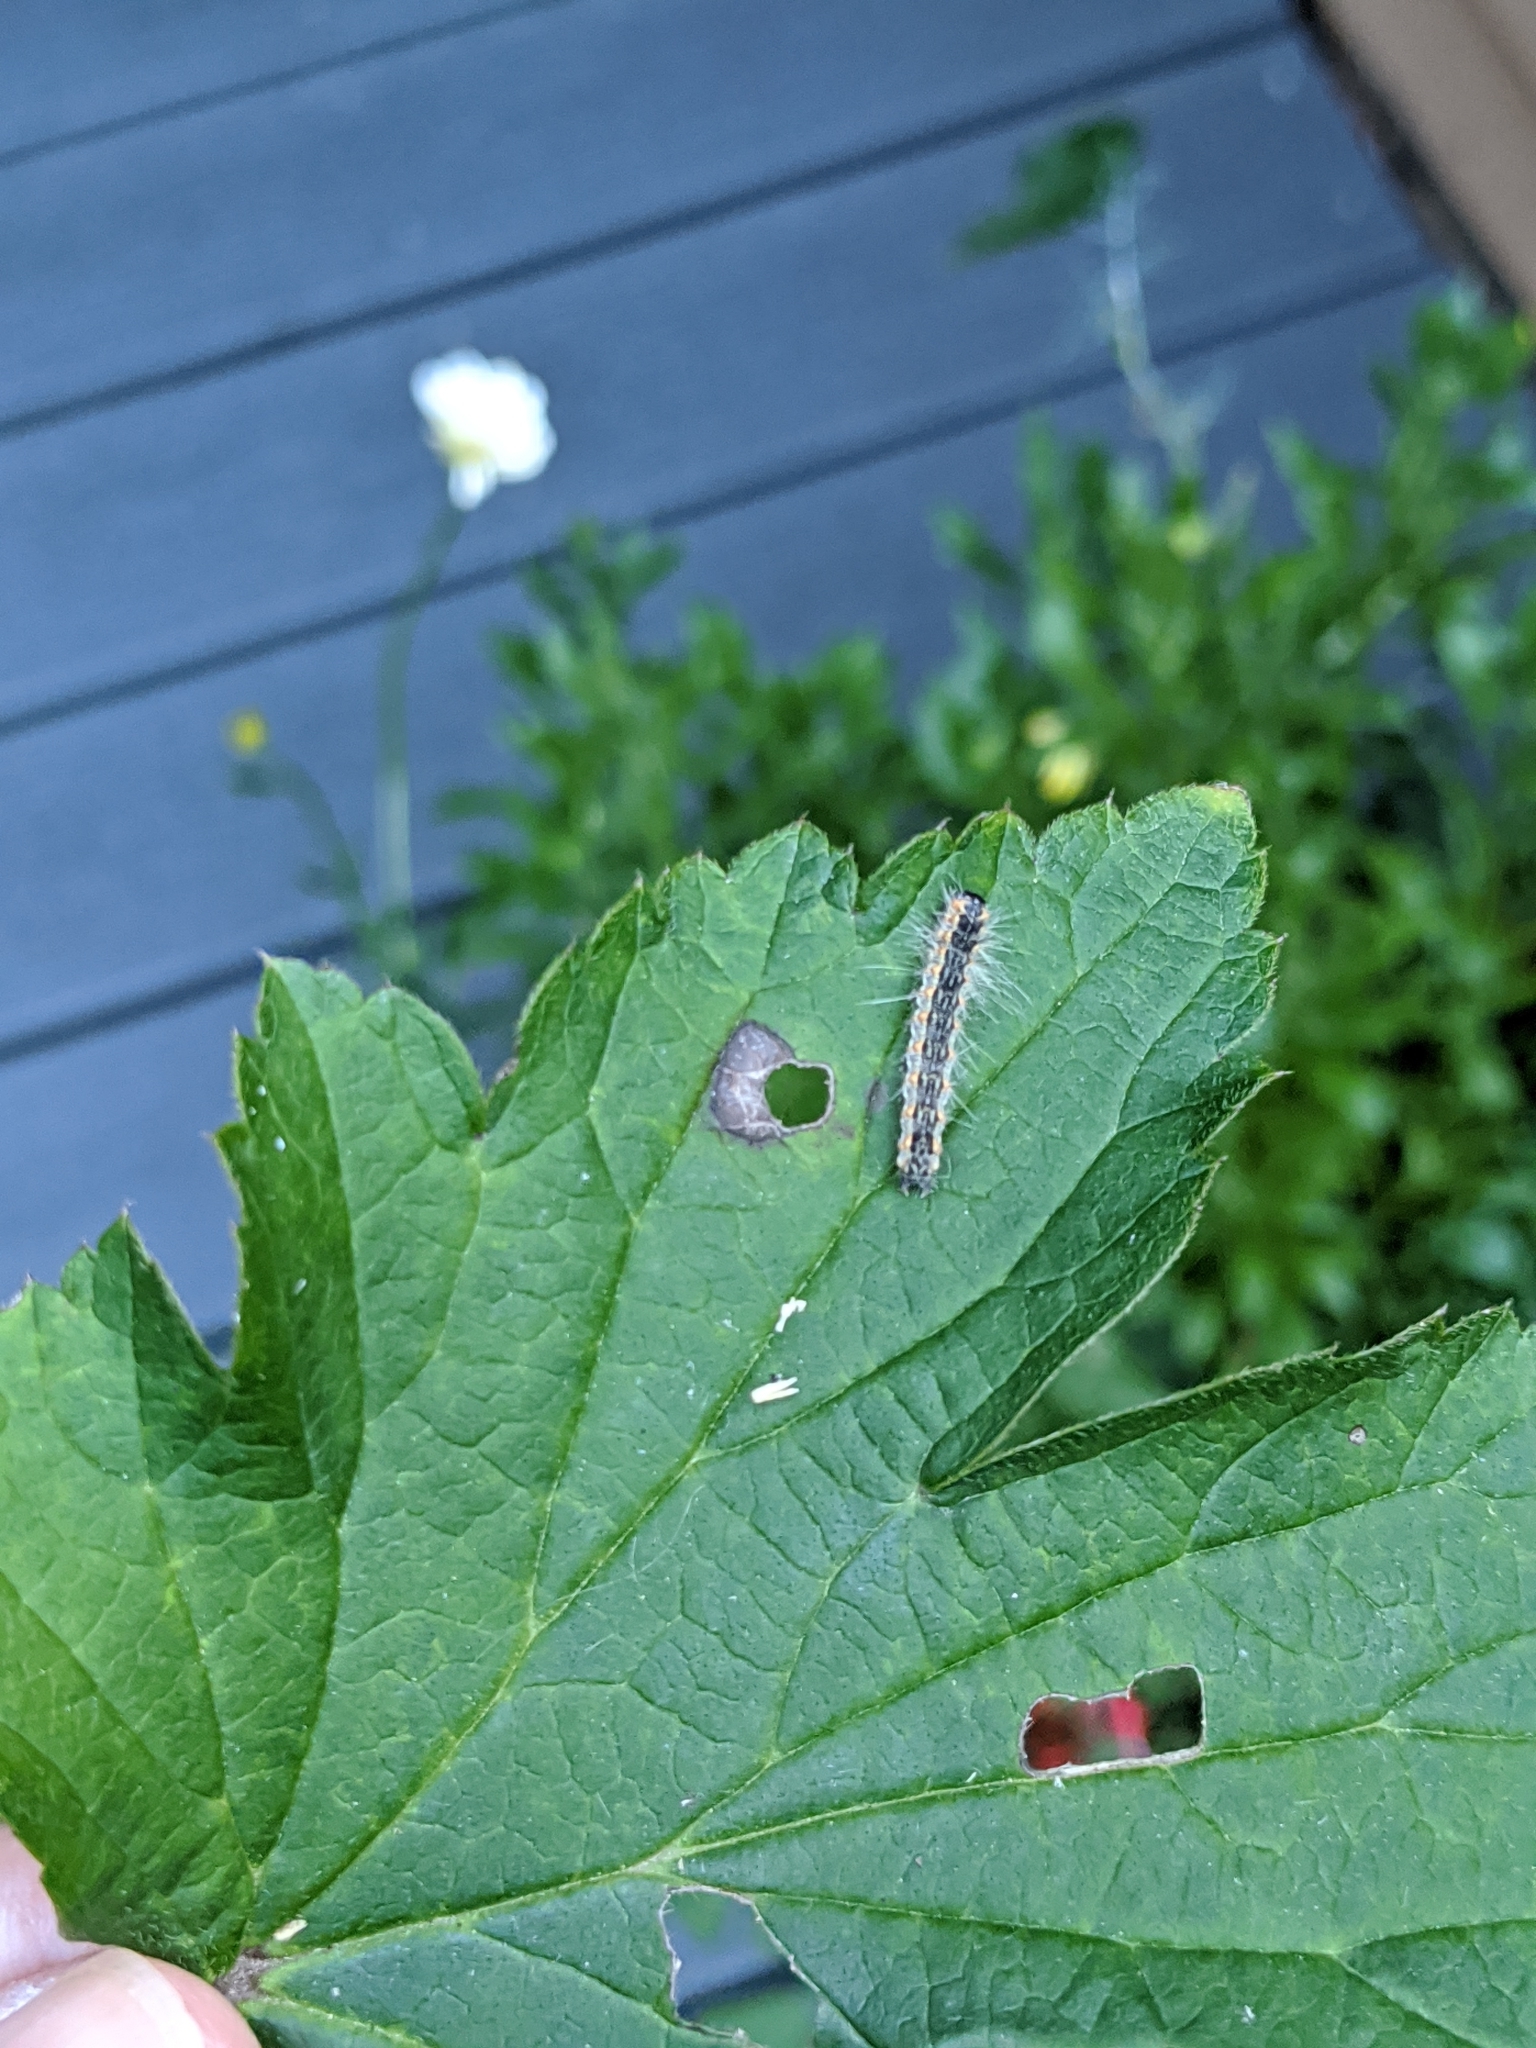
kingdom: Animalia
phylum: Arthropoda
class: Insecta
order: Lepidoptera
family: Erebidae
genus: Hyphantria
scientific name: Hyphantria cunea
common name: American white moth
